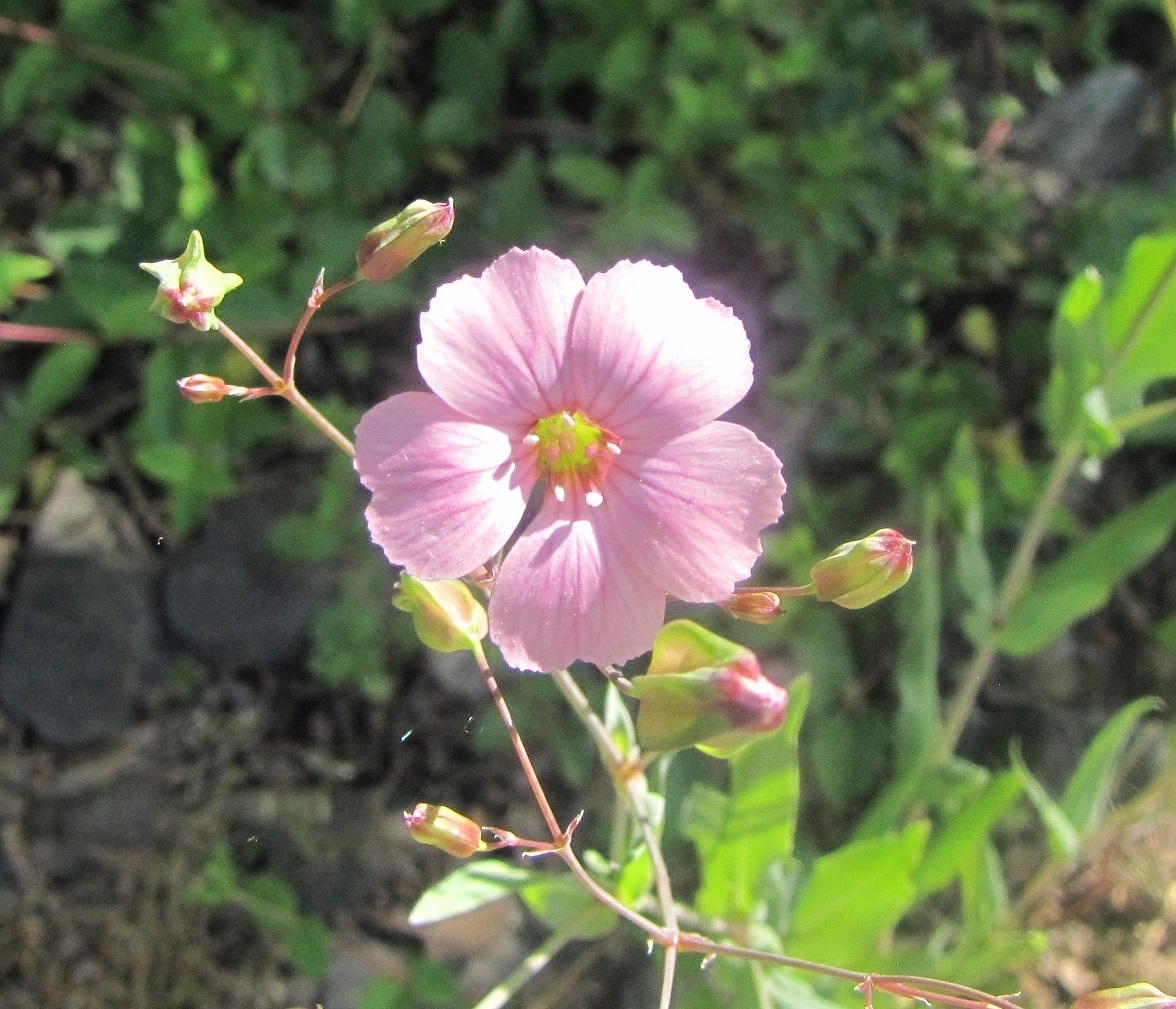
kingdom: Plantae
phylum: Tracheophyta
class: Magnoliopsida
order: Caryophyllales
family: Caryophyllaceae
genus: Gypsophila
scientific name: Gypsophila vaccaria
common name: Cow soapwort
